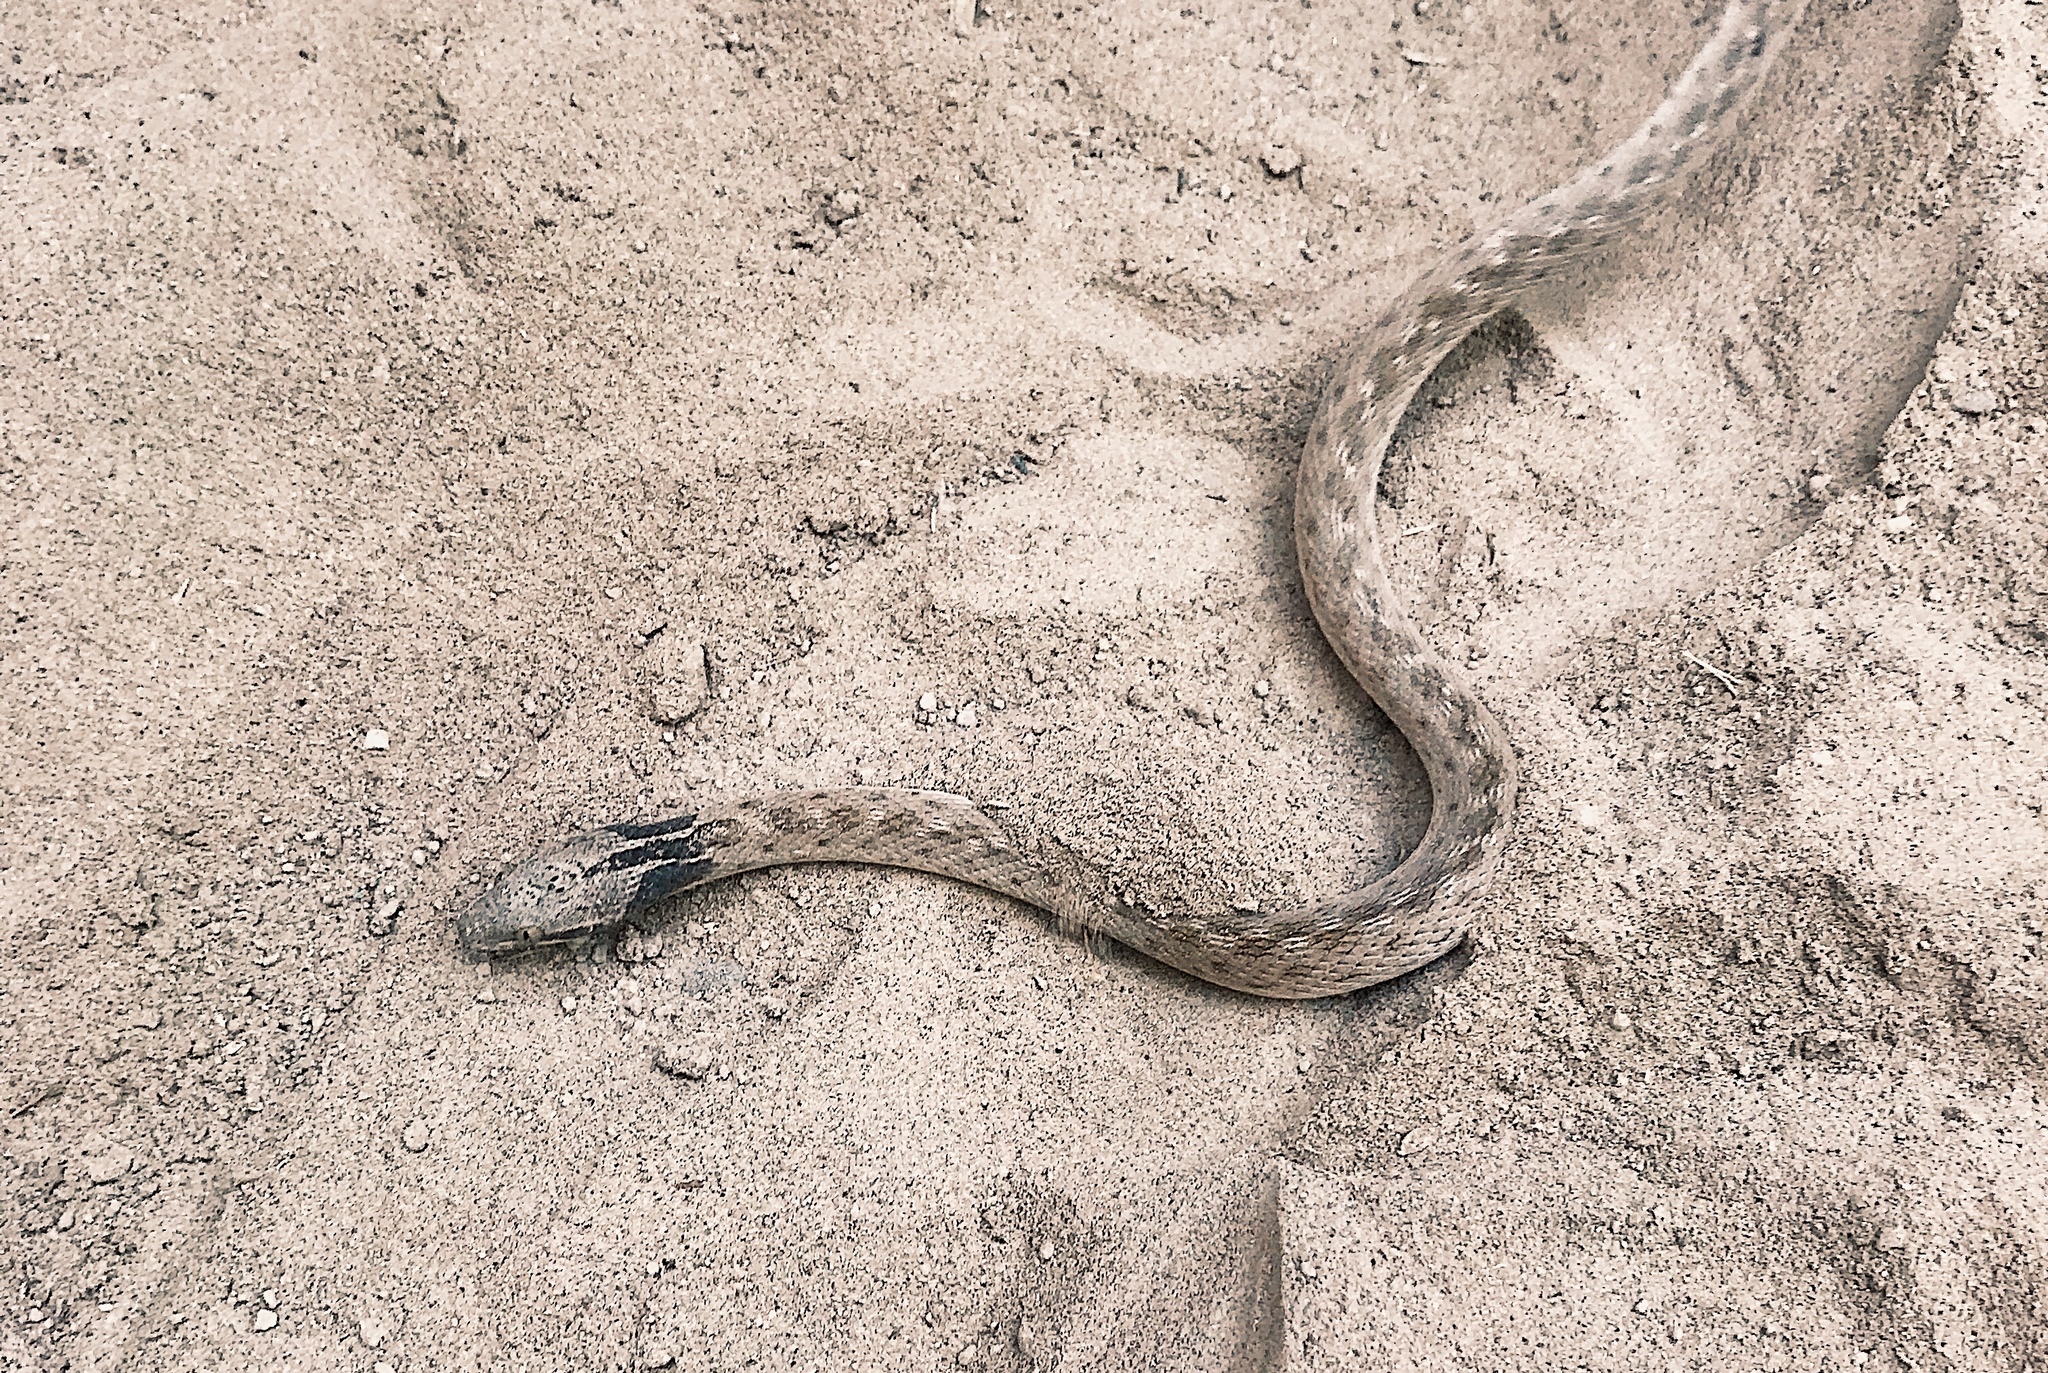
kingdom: Animalia
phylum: Chordata
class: Squamata
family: Colubridae
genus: Hypsiglena
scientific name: Hypsiglena jani
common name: Chihuahuan nightsnake
